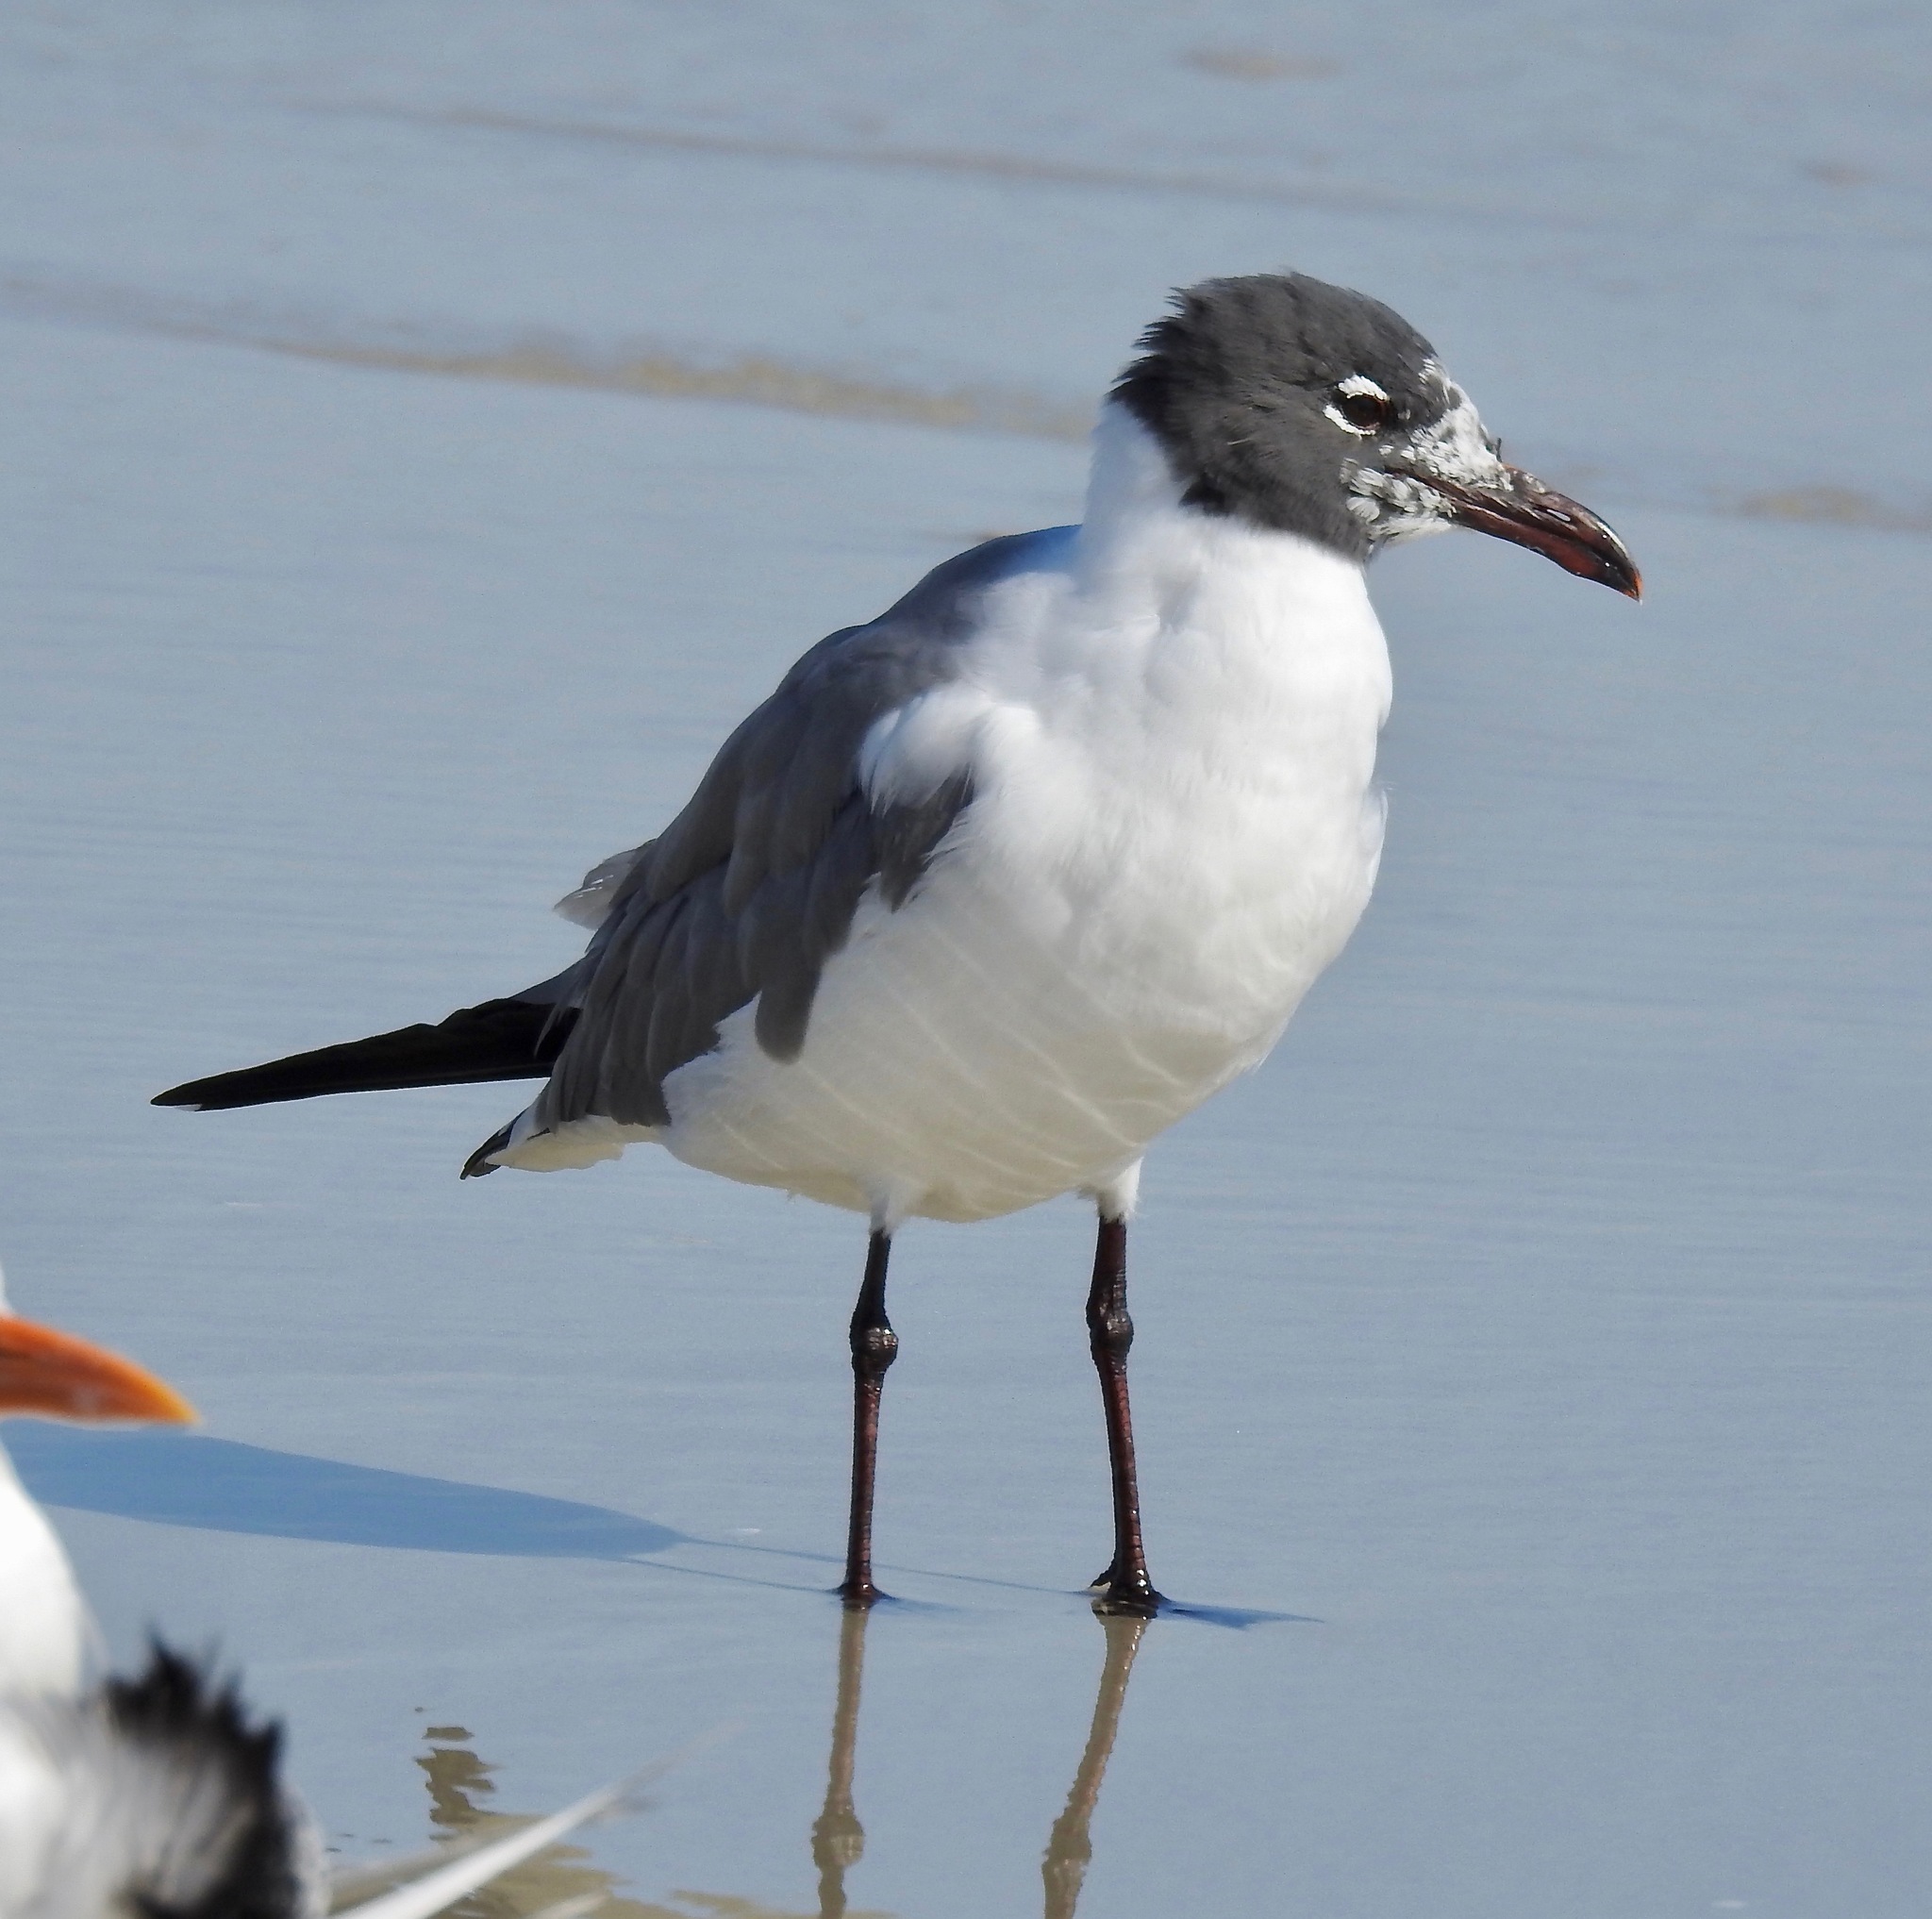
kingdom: Animalia
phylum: Chordata
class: Aves
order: Charadriiformes
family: Laridae
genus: Leucophaeus
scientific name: Leucophaeus atricilla
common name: Laughing gull
